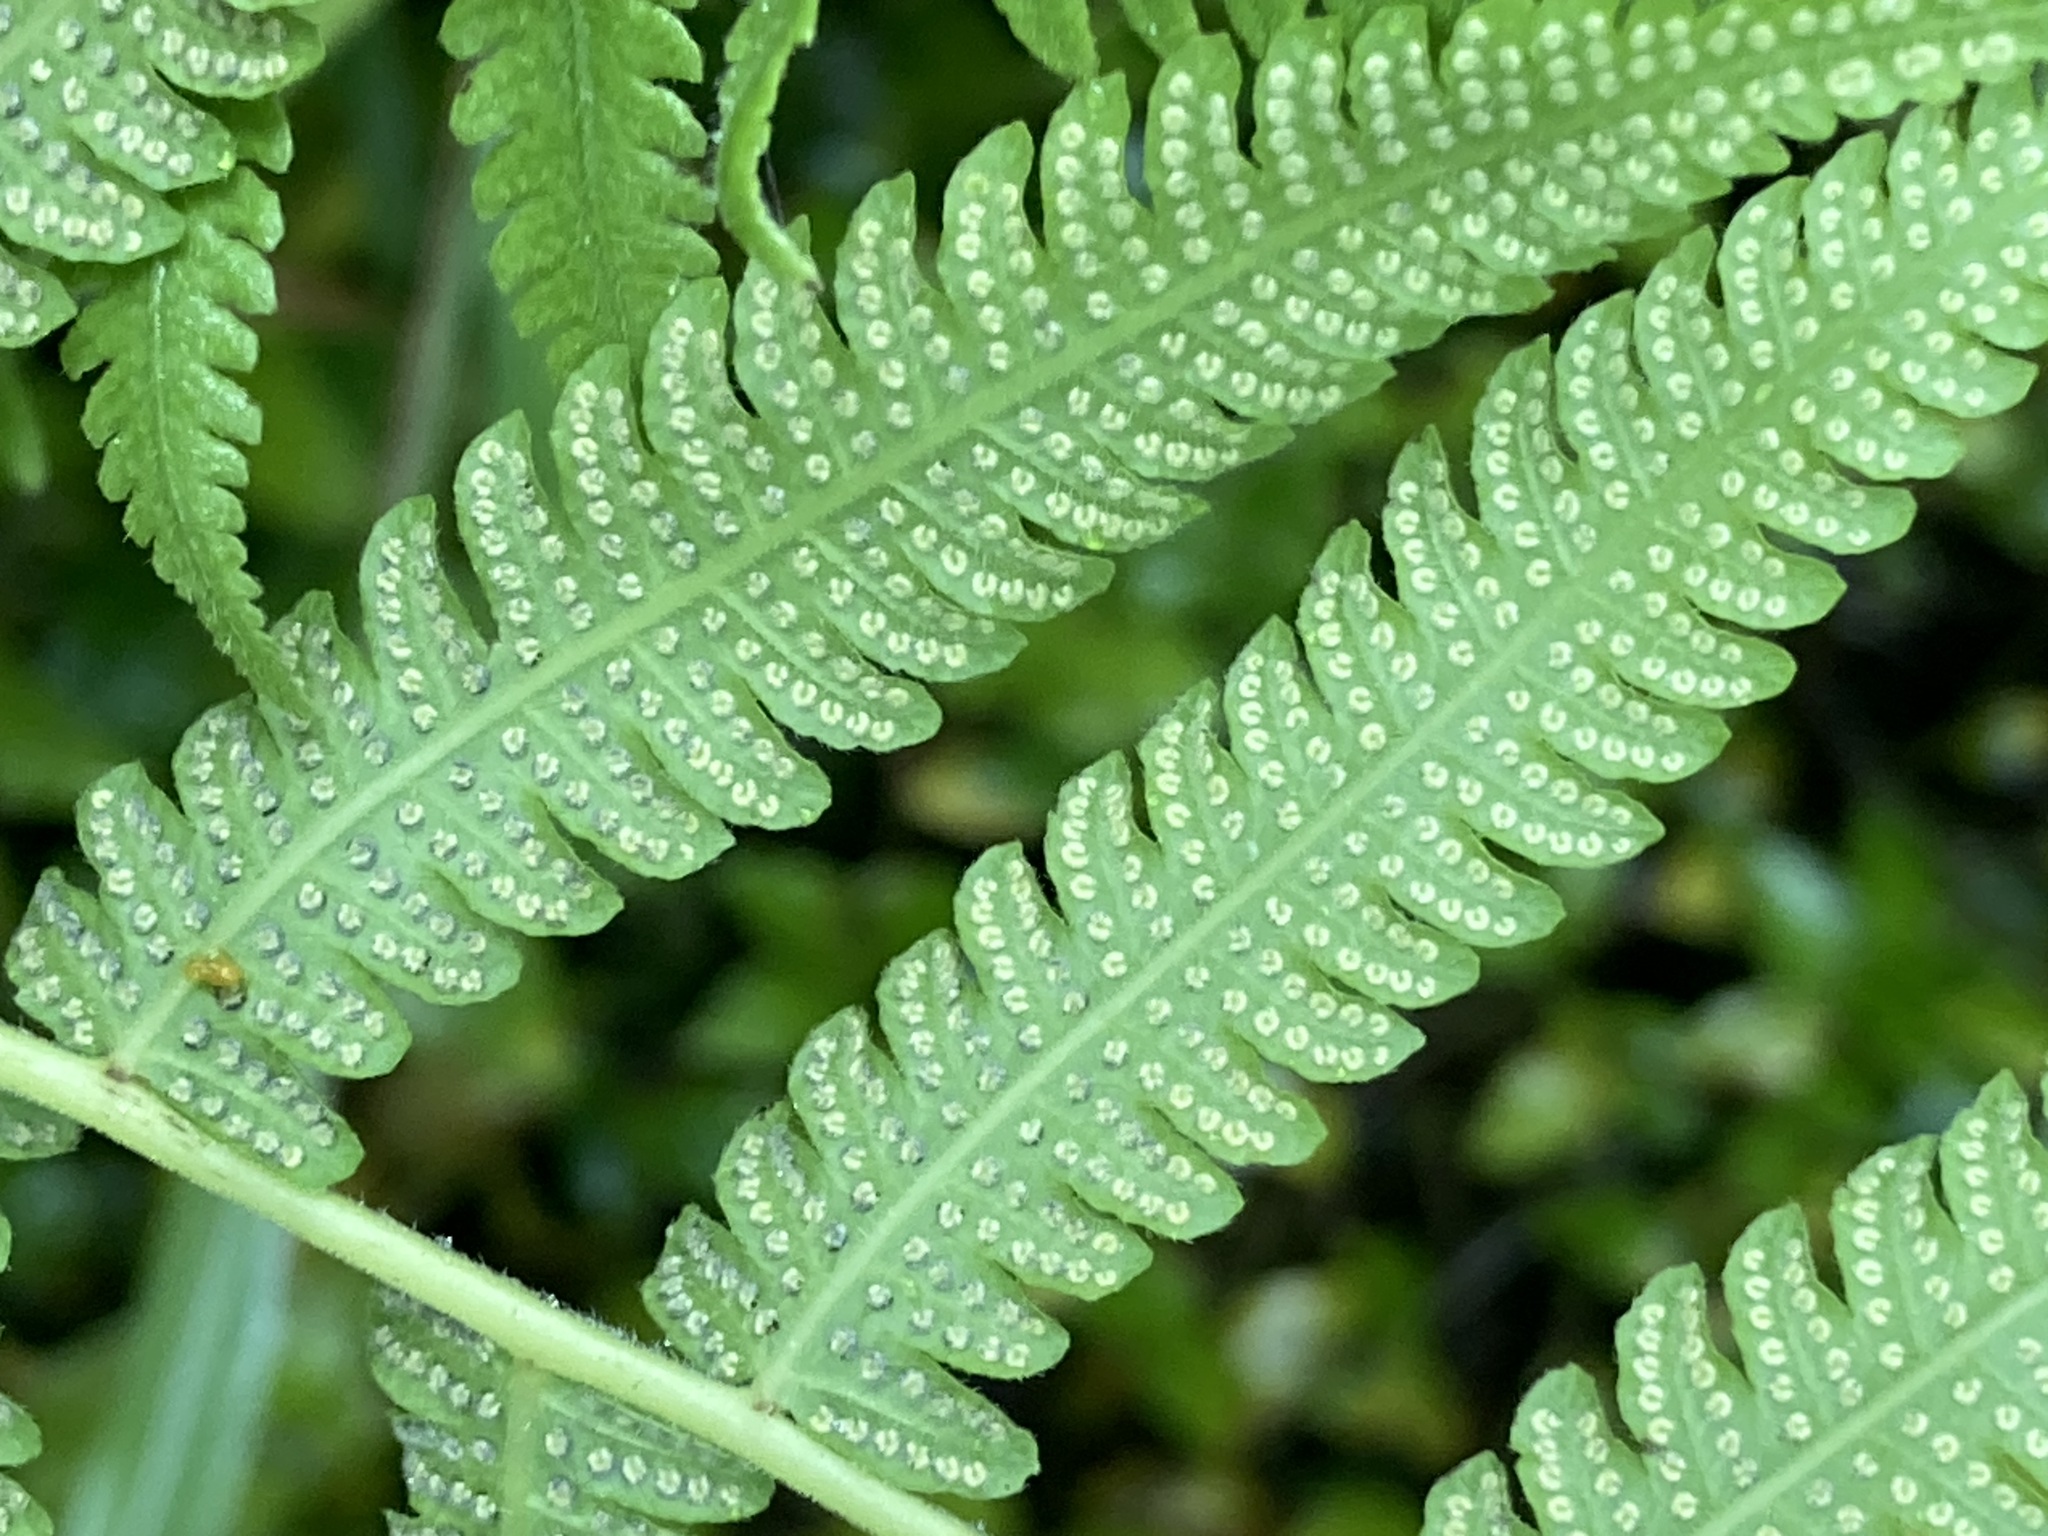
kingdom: Plantae
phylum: Tracheophyta
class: Polypodiopsida
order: Polypodiales
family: Thelypteridaceae
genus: Christella
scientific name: Christella dentata
